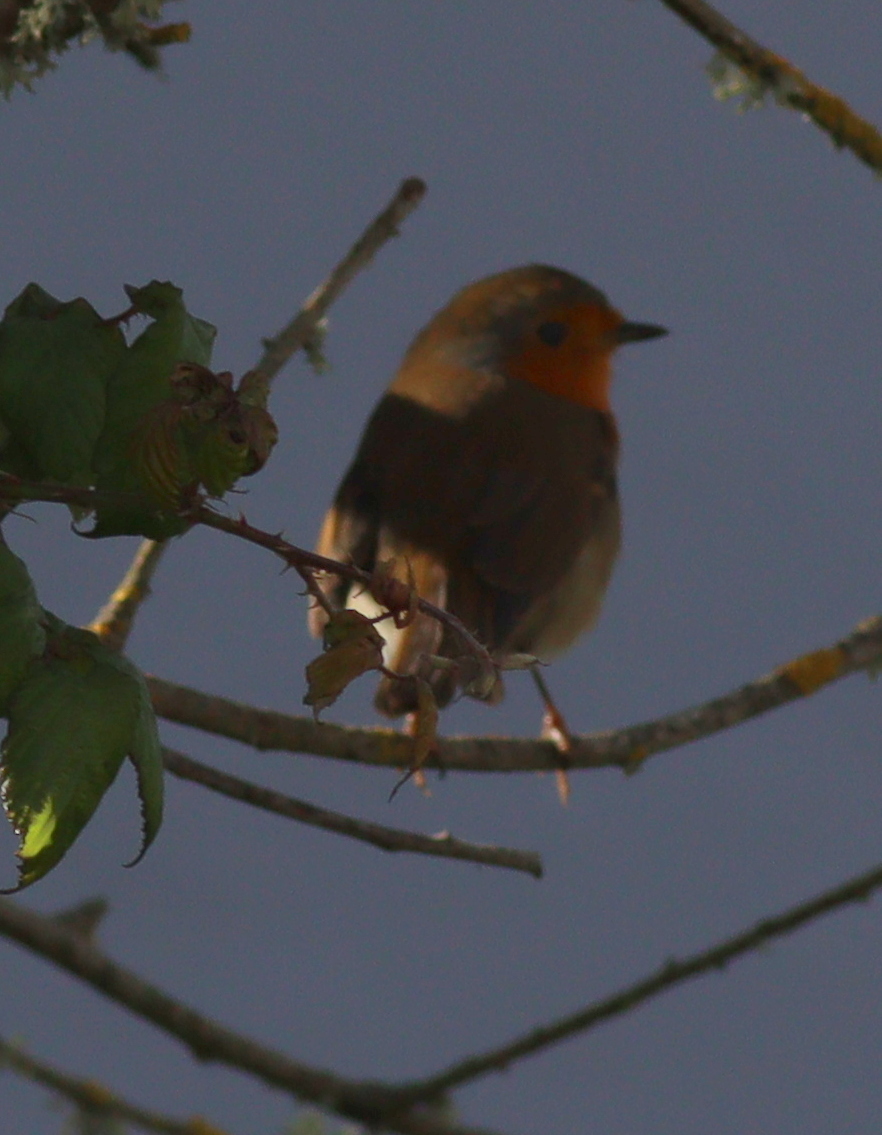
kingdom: Animalia
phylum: Chordata
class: Aves
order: Passeriformes
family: Muscicapidae
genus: Erithacus
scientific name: Erithacus rubecula
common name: European robin
